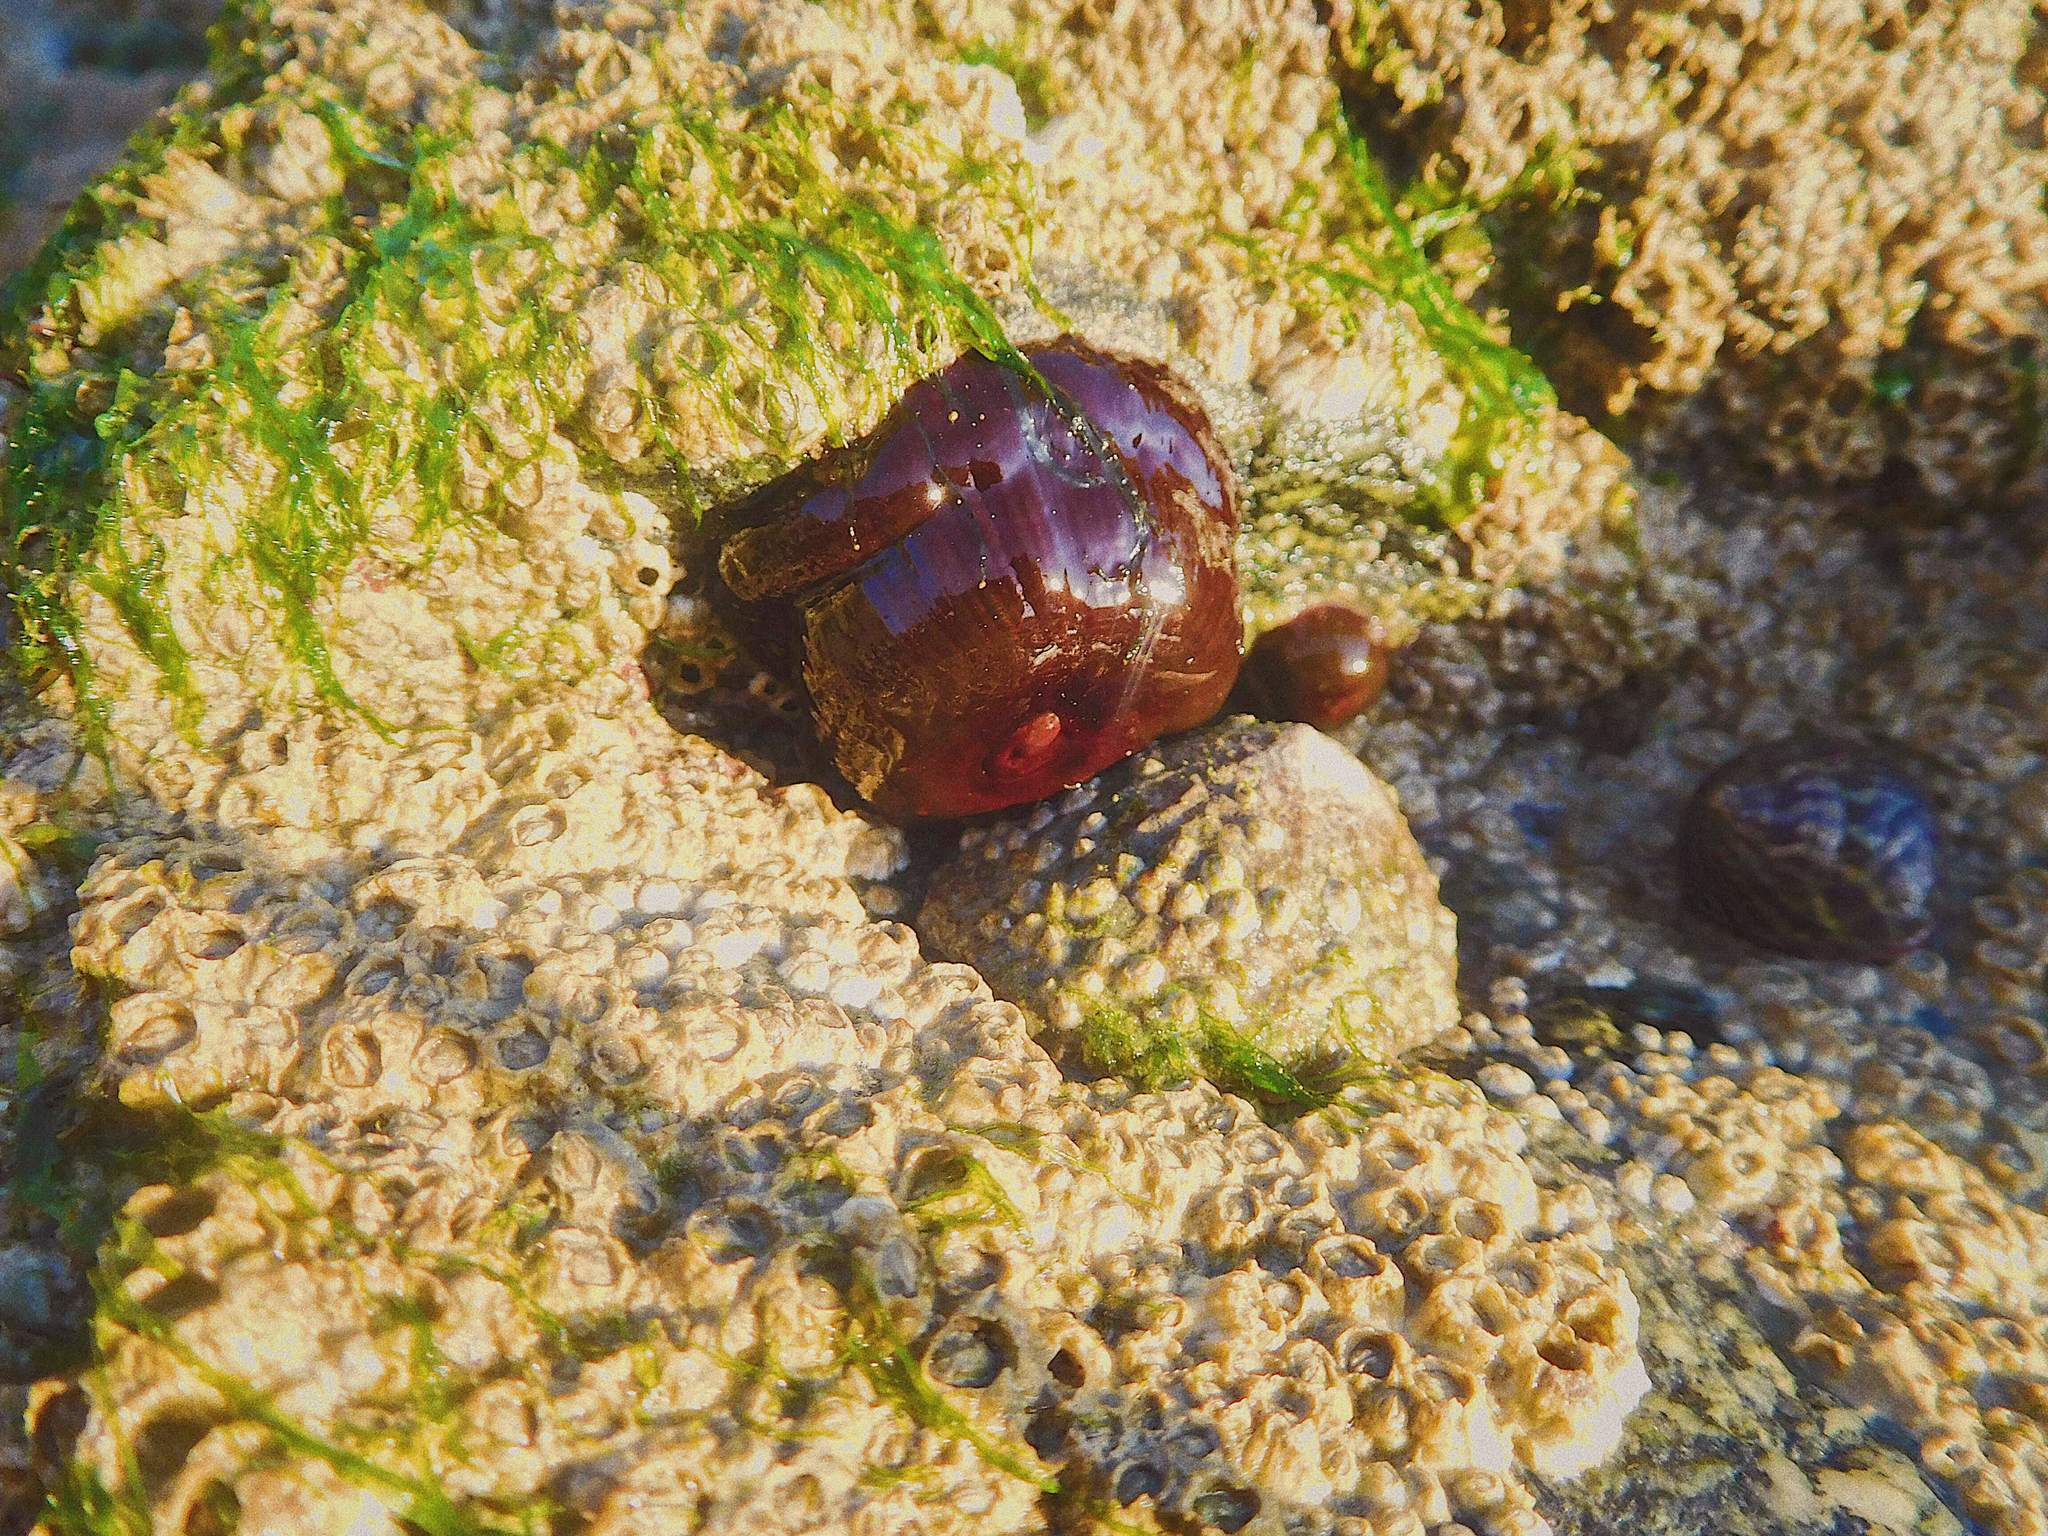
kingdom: Animalia
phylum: Cnidaria
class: Anthozoa
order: Actiniaria
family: Actiniidae
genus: Actinia
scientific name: Actinia equina
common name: Beadlet anemone
